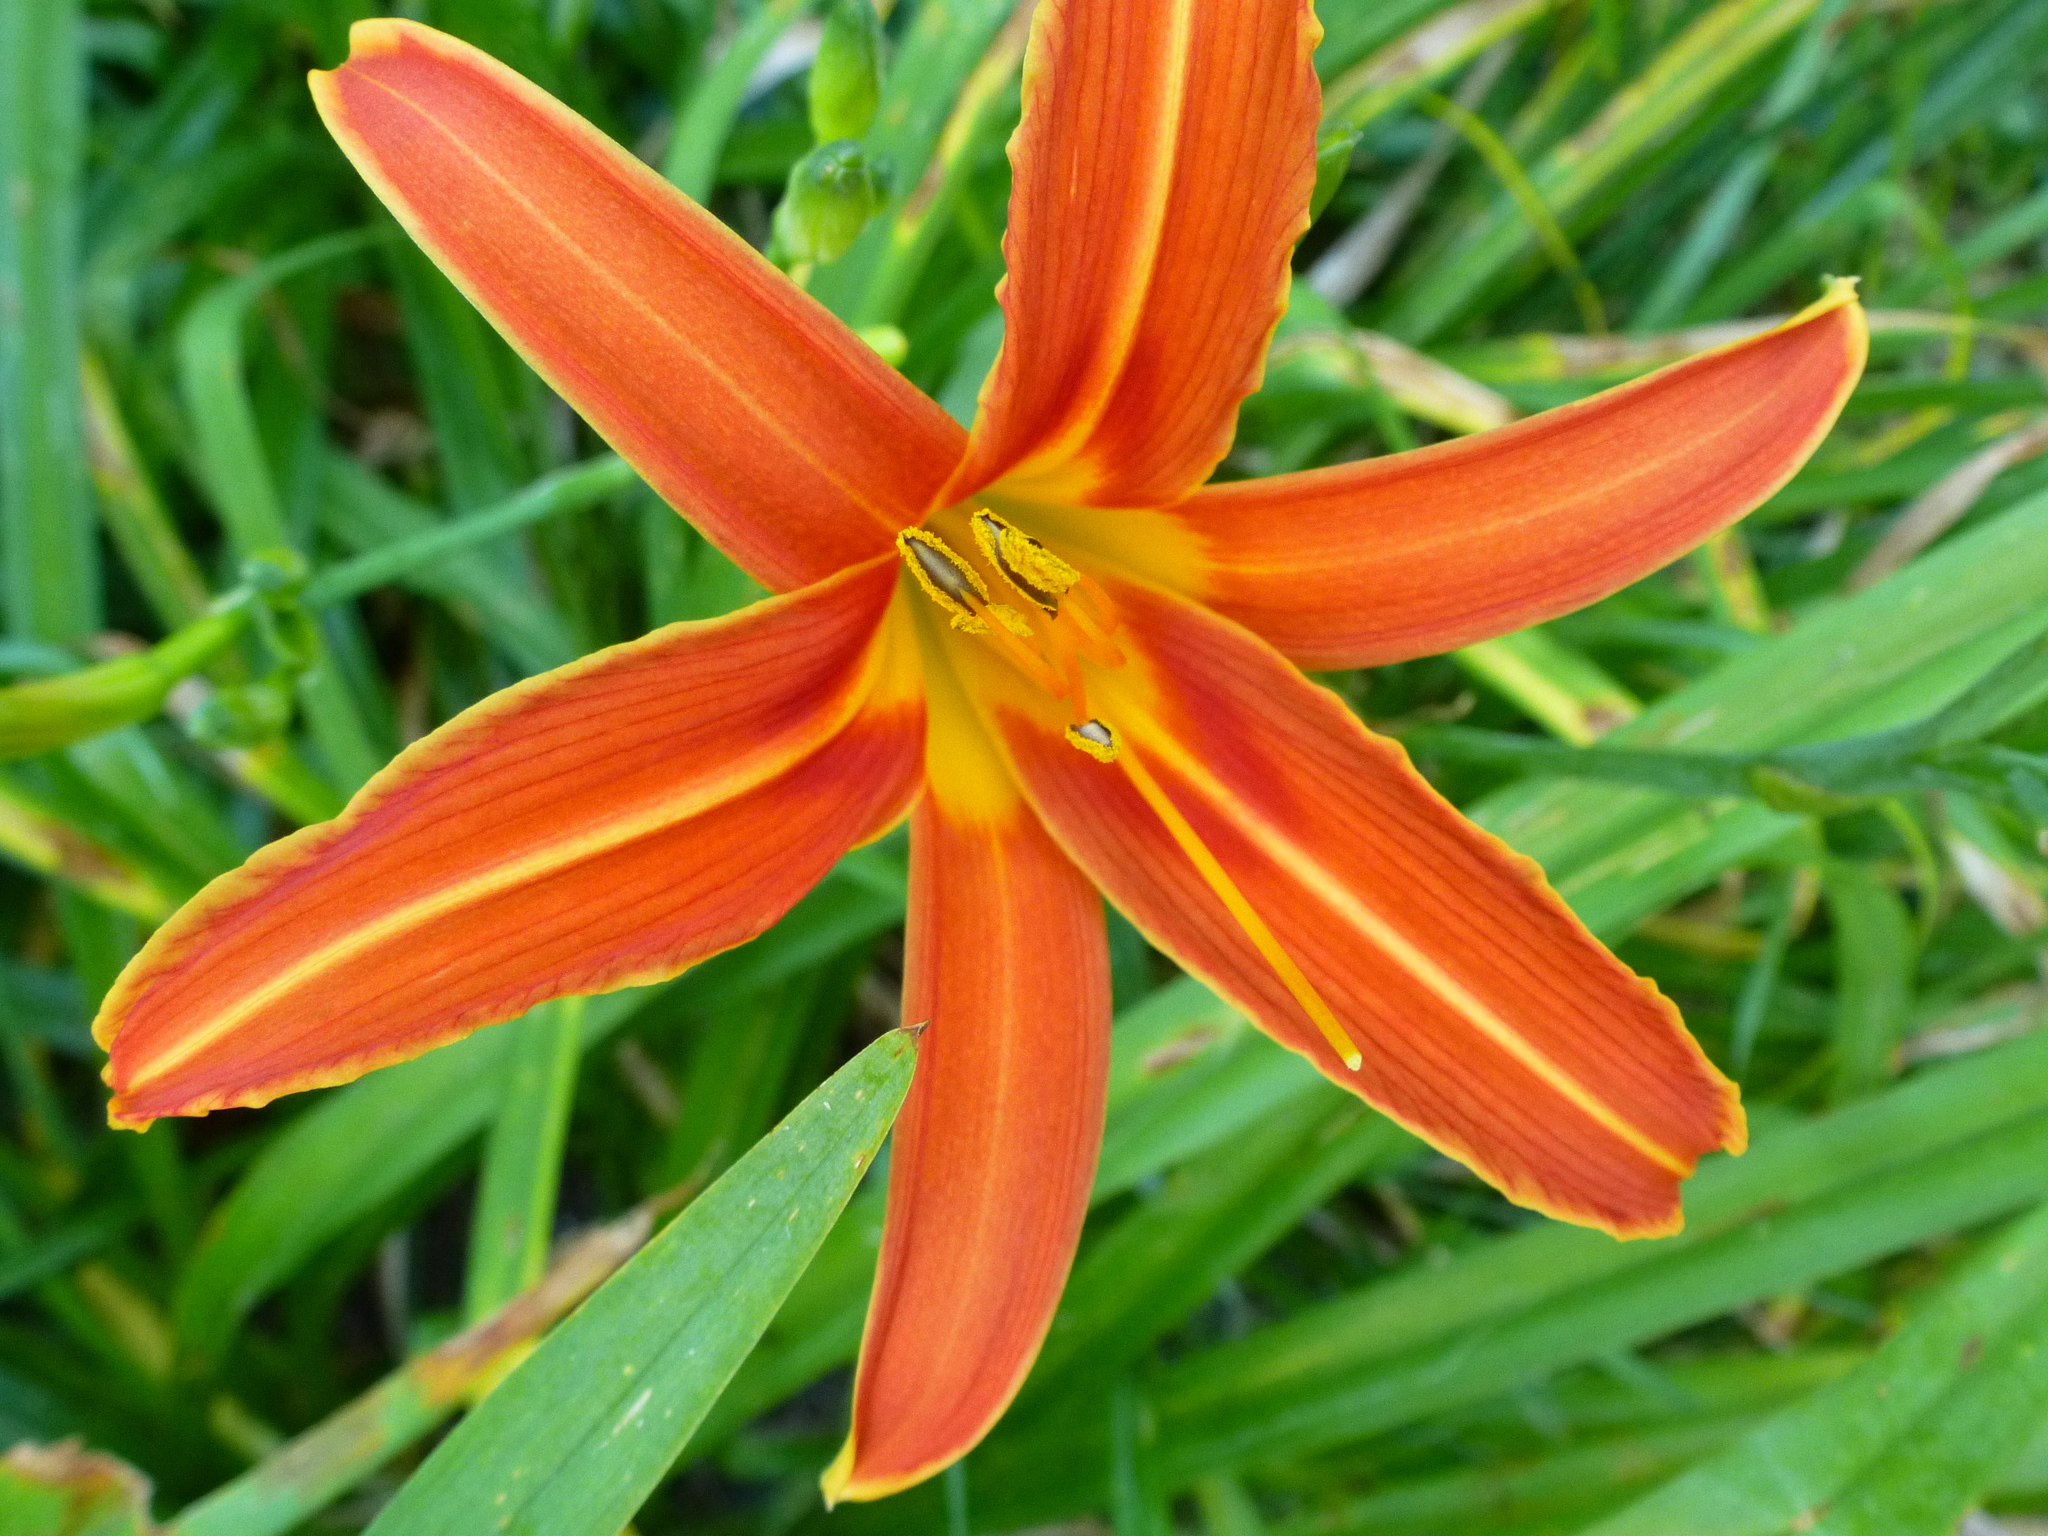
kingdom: Plantae
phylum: Tracheophyta
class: Liliopsida
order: Asparagales
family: Asphodelaceae
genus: Hemerocallis
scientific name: Hemerocallis fulva
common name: Orange day-lily
